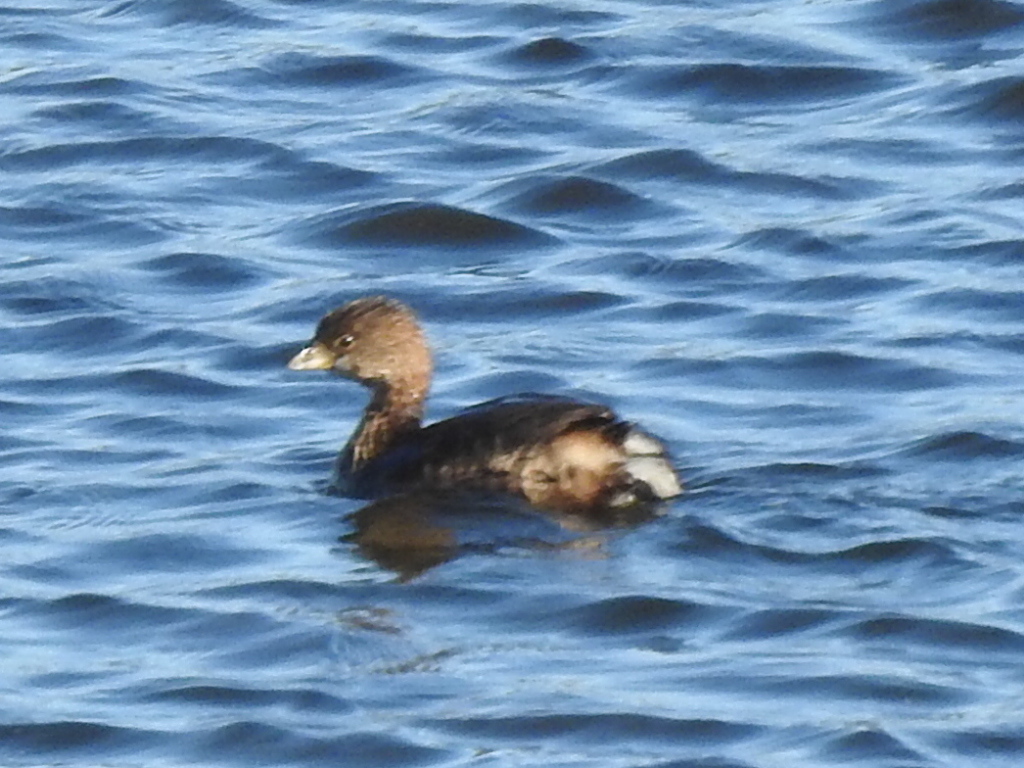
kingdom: Animalia
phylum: Chordata
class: Aves
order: Podicipediformes
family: Podicipedidae
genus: Podilymbus
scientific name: Podilymbus podiceps
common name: Pied-billed grebe
